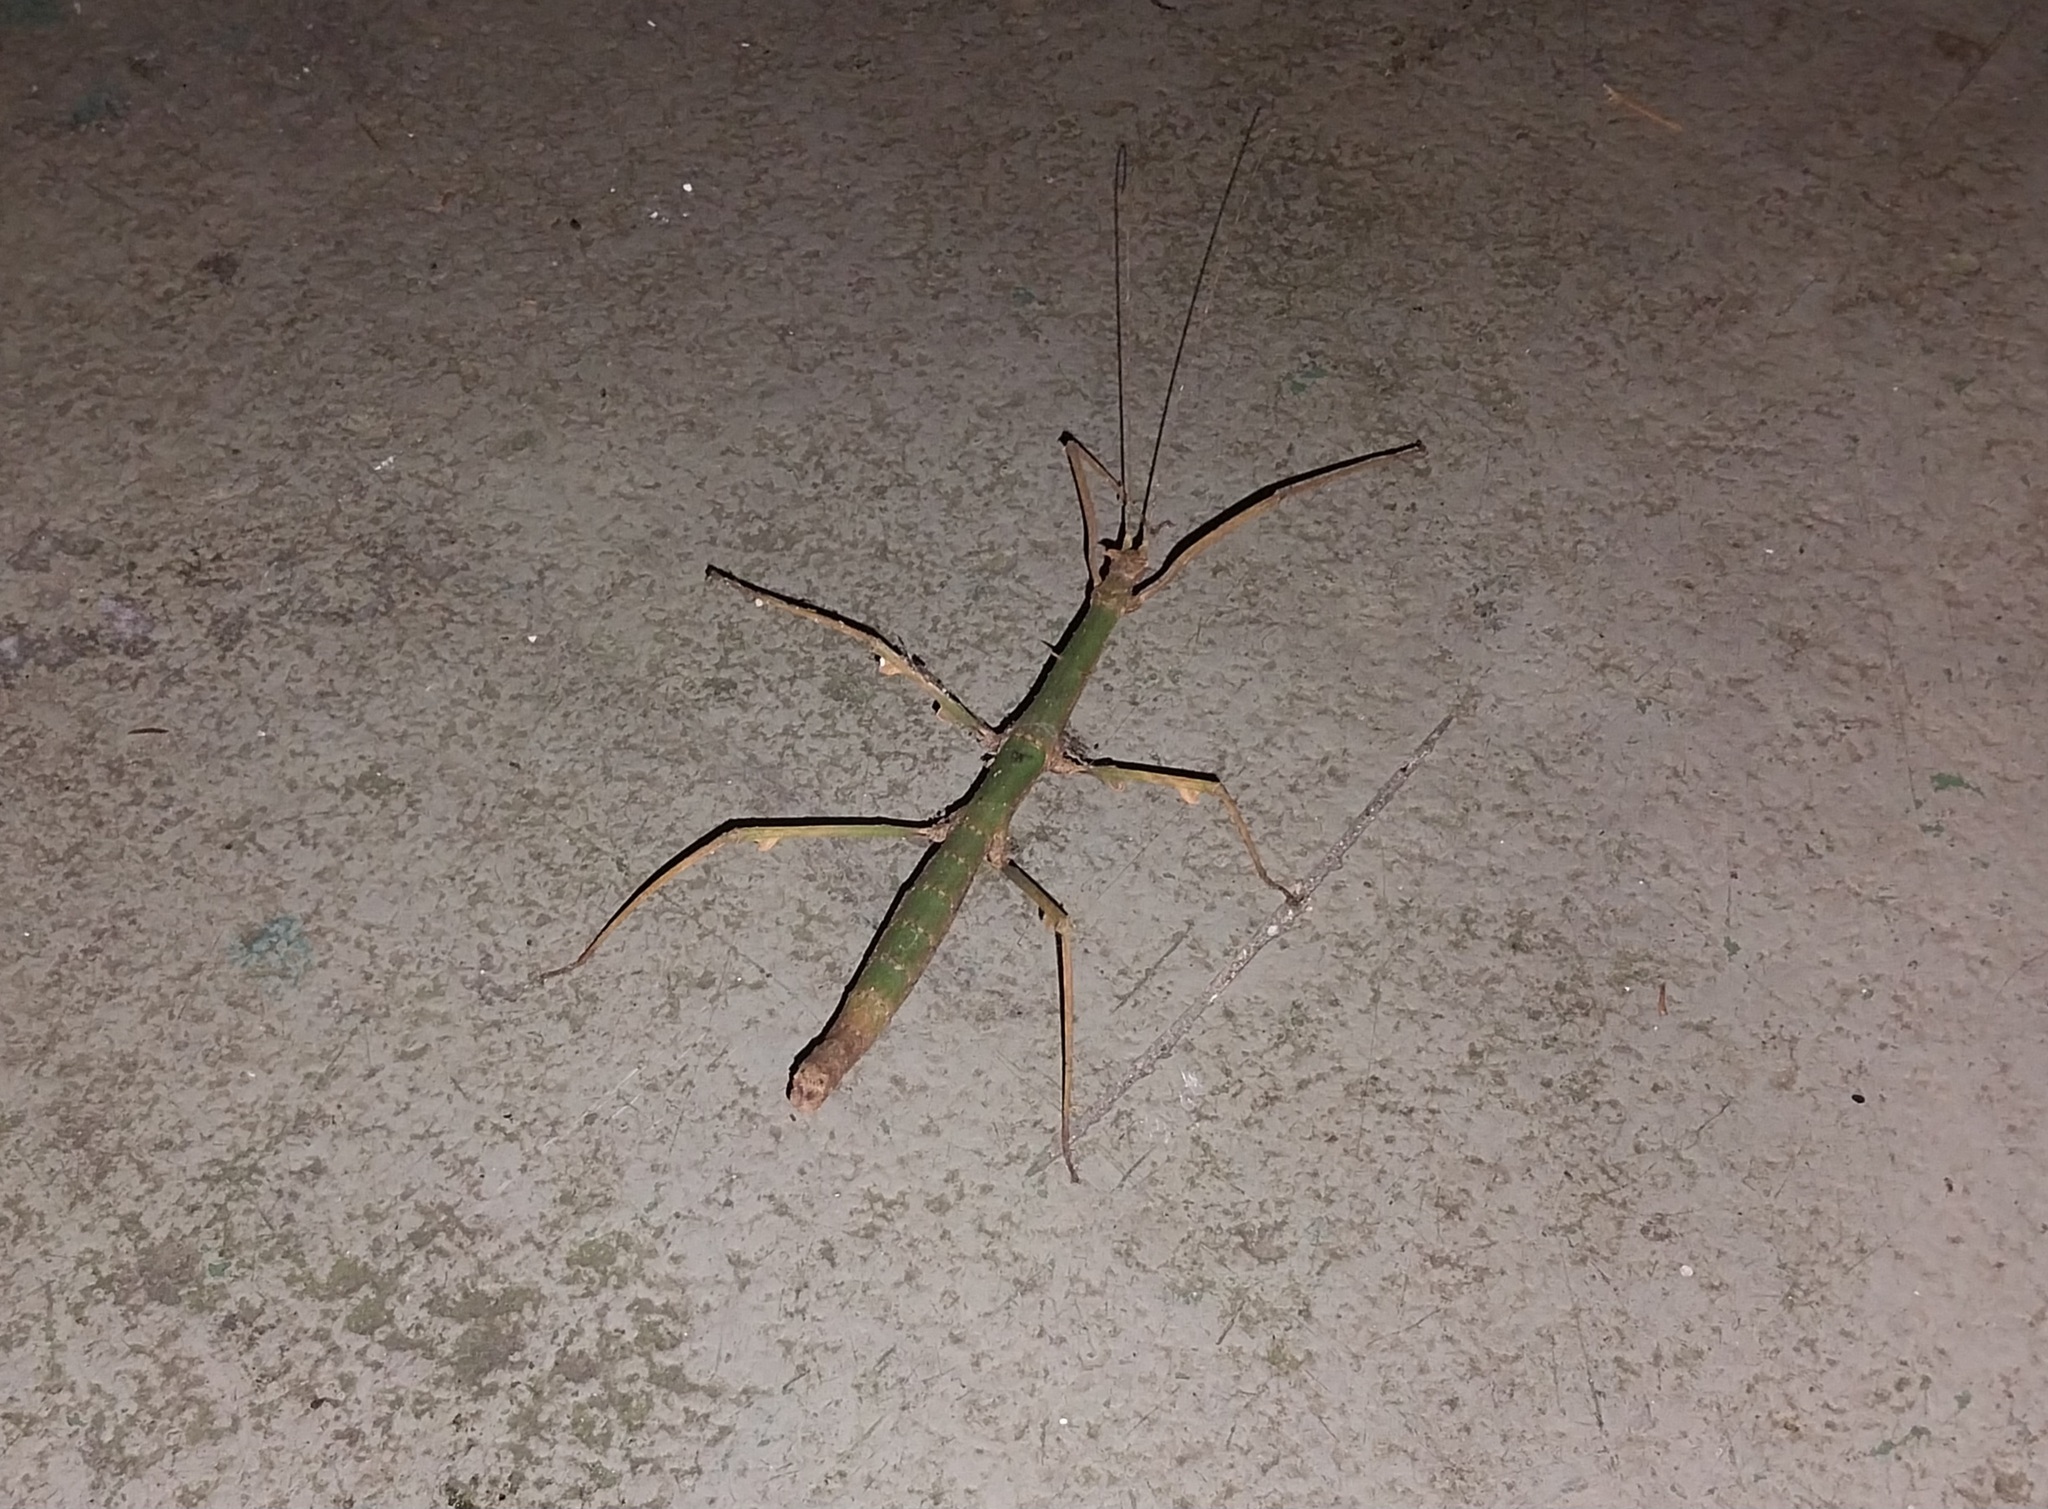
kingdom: Animalia
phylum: Arthropoda
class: Insecta
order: Phasmida
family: Heteronemiidae
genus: Ceroys
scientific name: Ceroys perfoliatus
